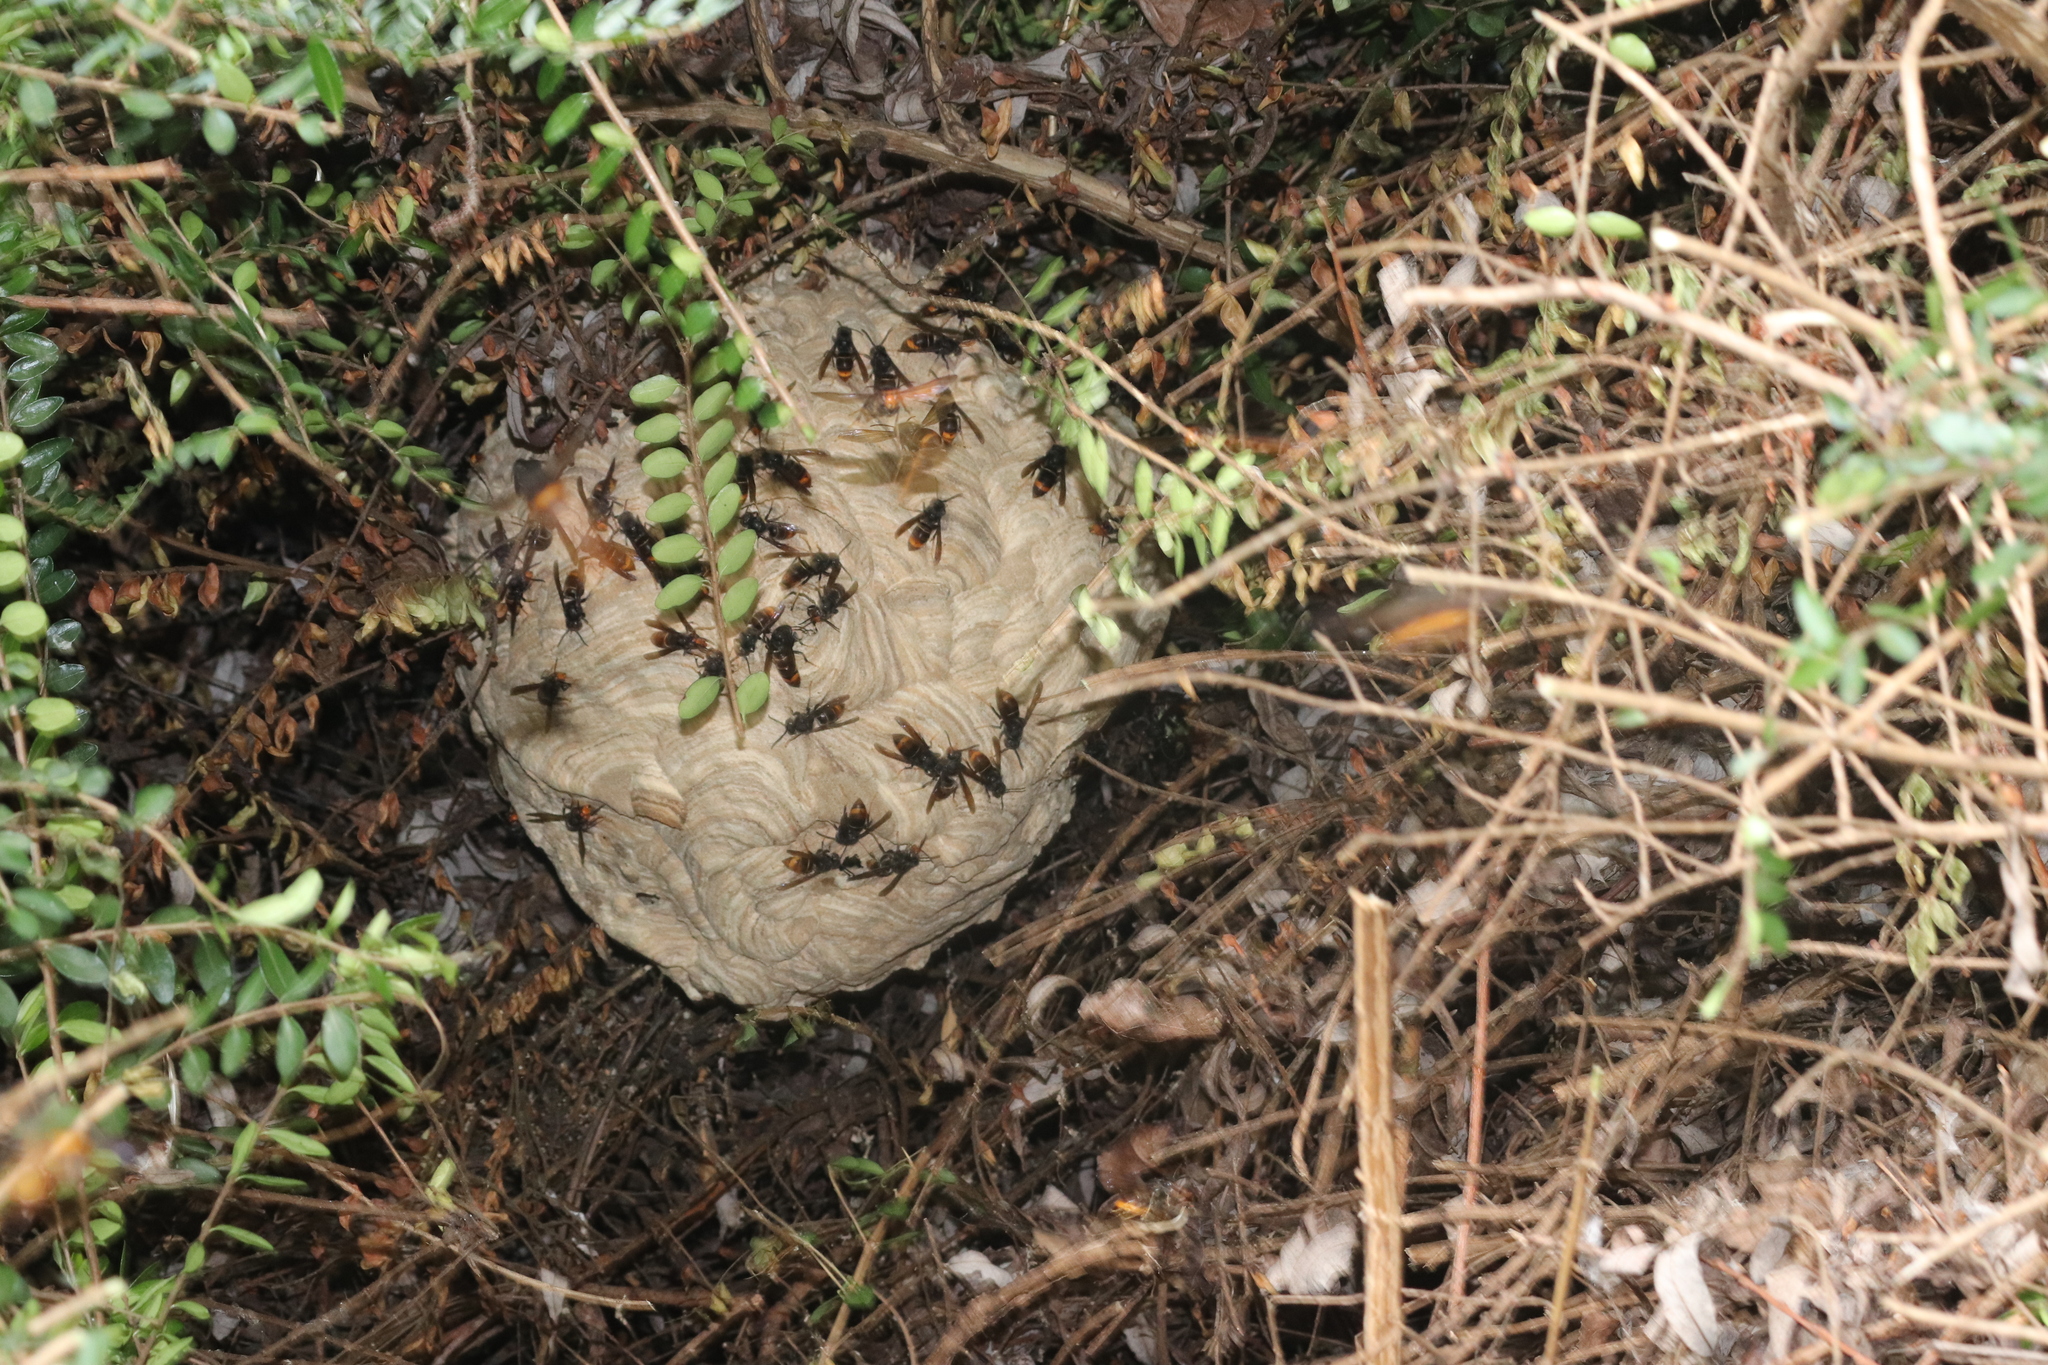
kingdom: Animalia
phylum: Arthropoda
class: Insecta
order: Hymenoptera
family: Vespidae
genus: Vespa
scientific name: Vespa velutina
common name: Asian hornet
